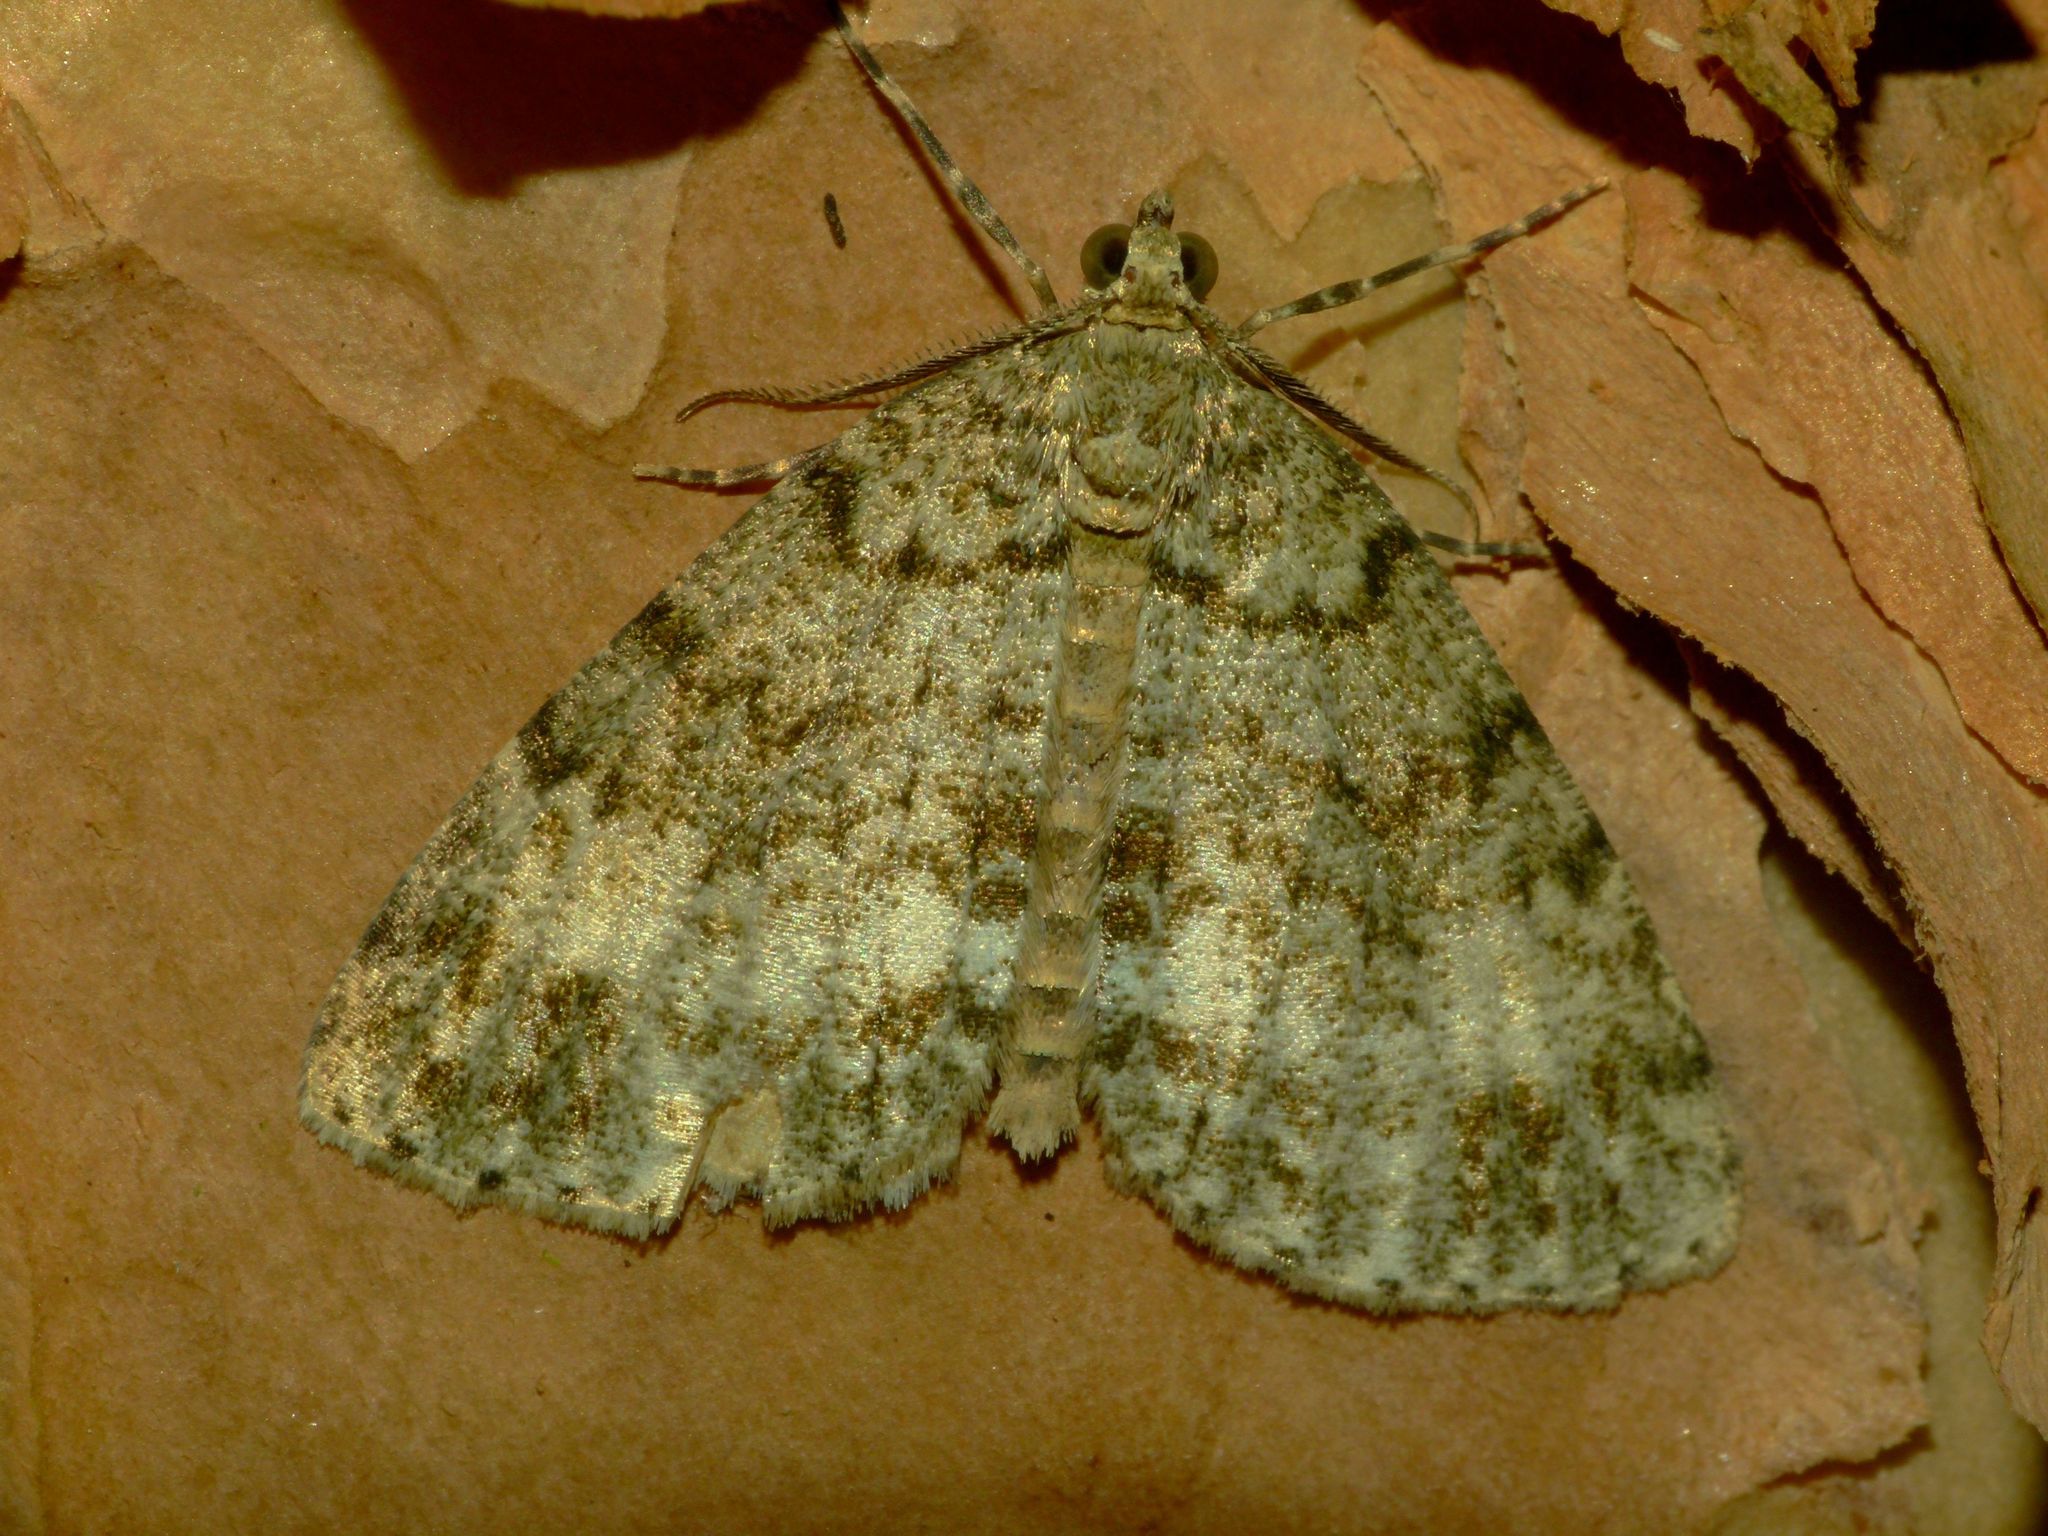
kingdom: Animalia
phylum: Arthropoda
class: Insecta
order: Lepidoptera
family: Geometridae
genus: Pseudocoremia
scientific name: Pseudocoremia indistincta
